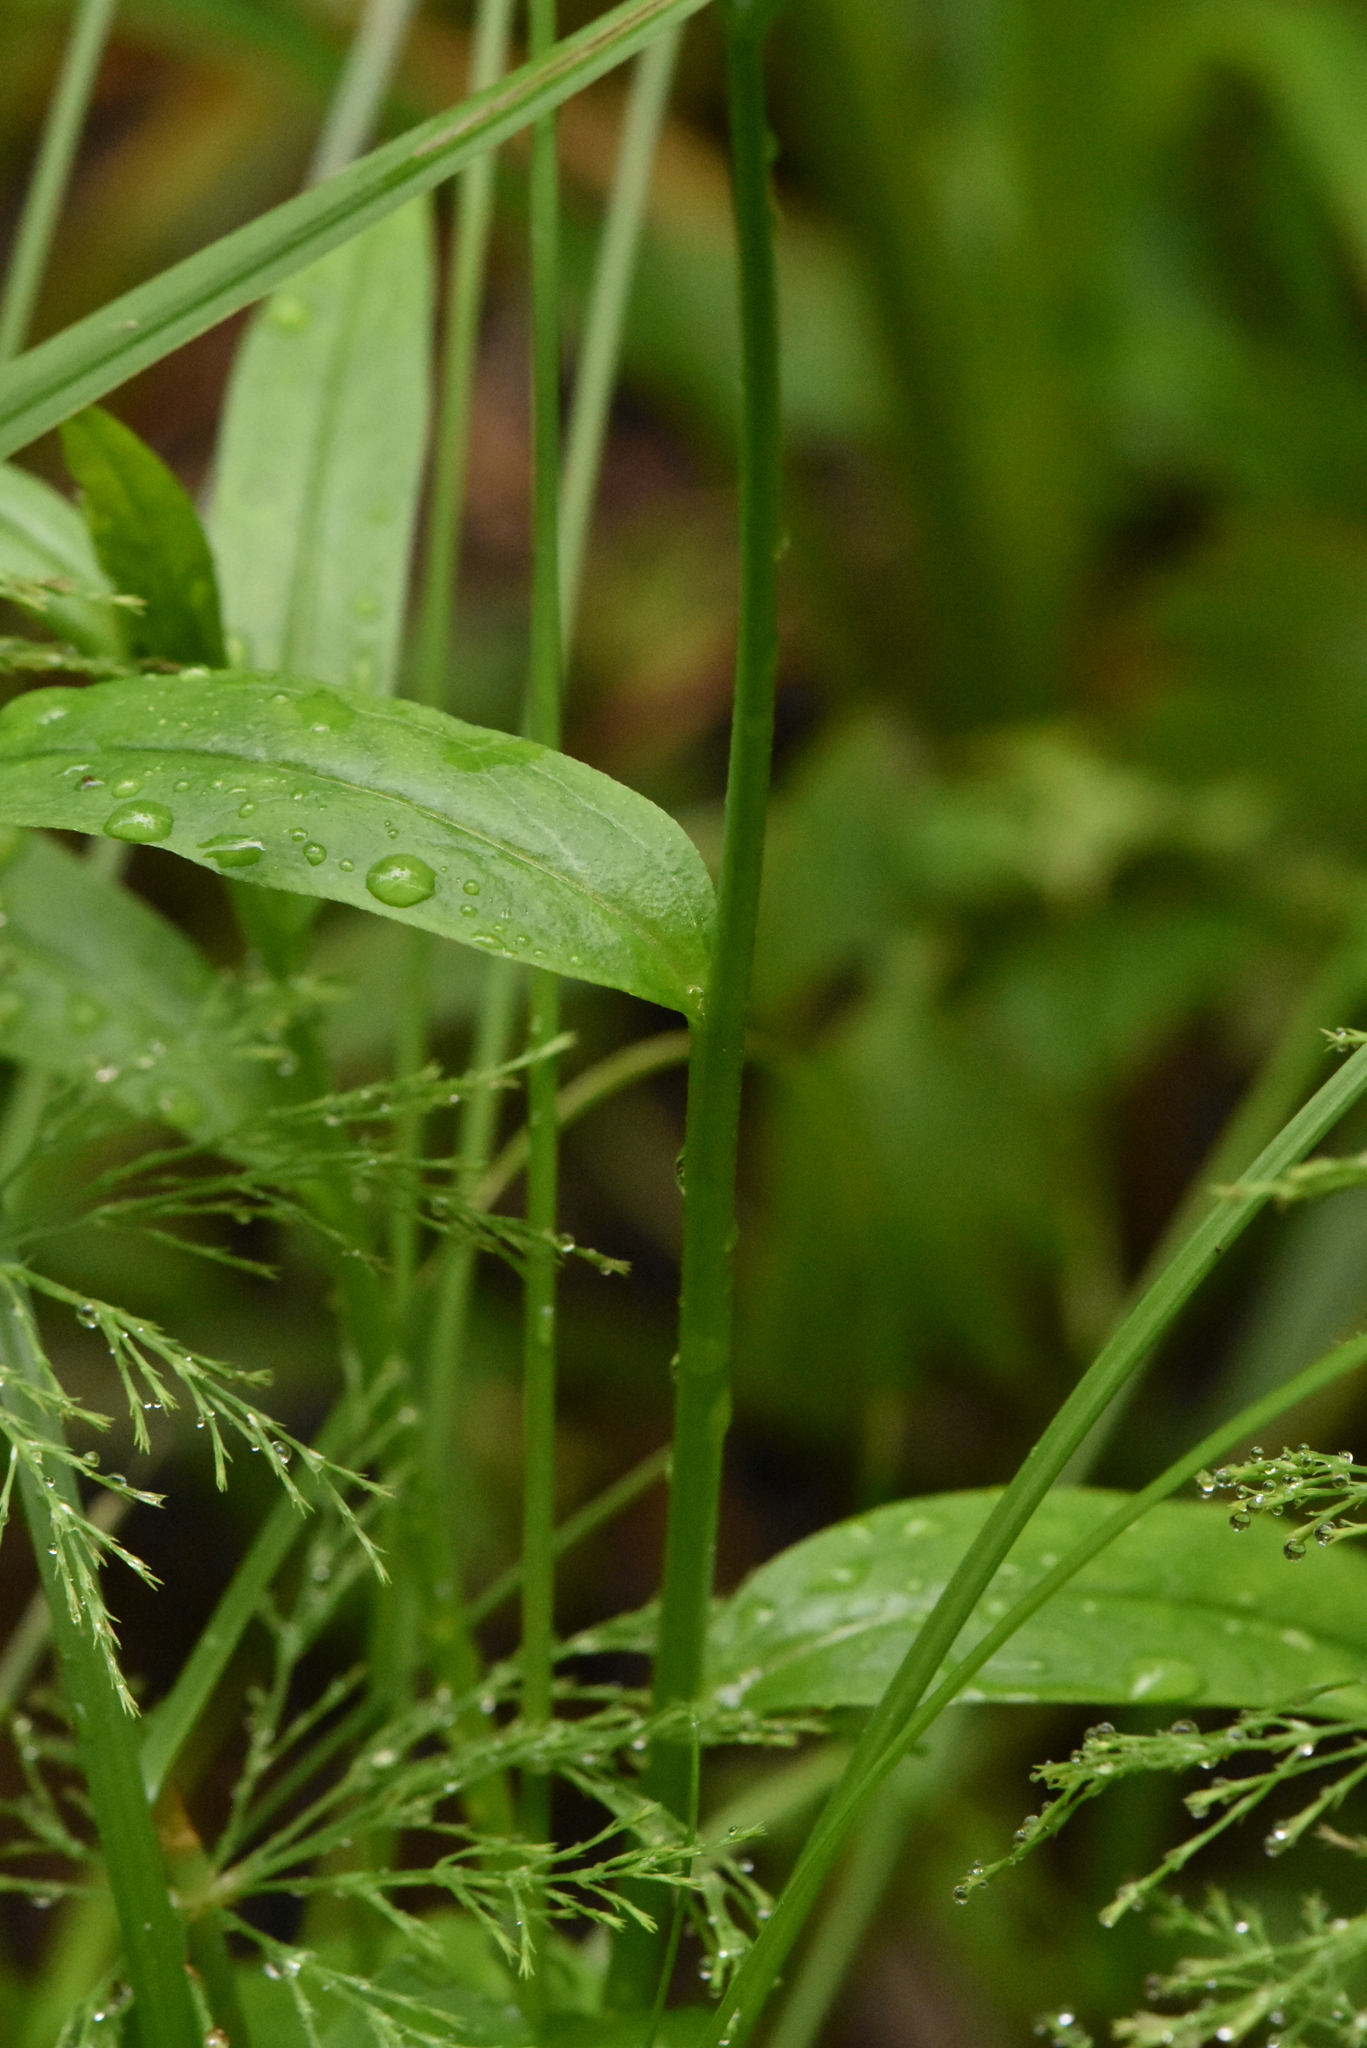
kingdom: Plantae
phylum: Tracheophyta
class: Magnoliopsida
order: Boraginales
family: Boraginaceae
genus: Myosotis
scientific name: Myosotis scorpioides
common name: Water forget-me-not
